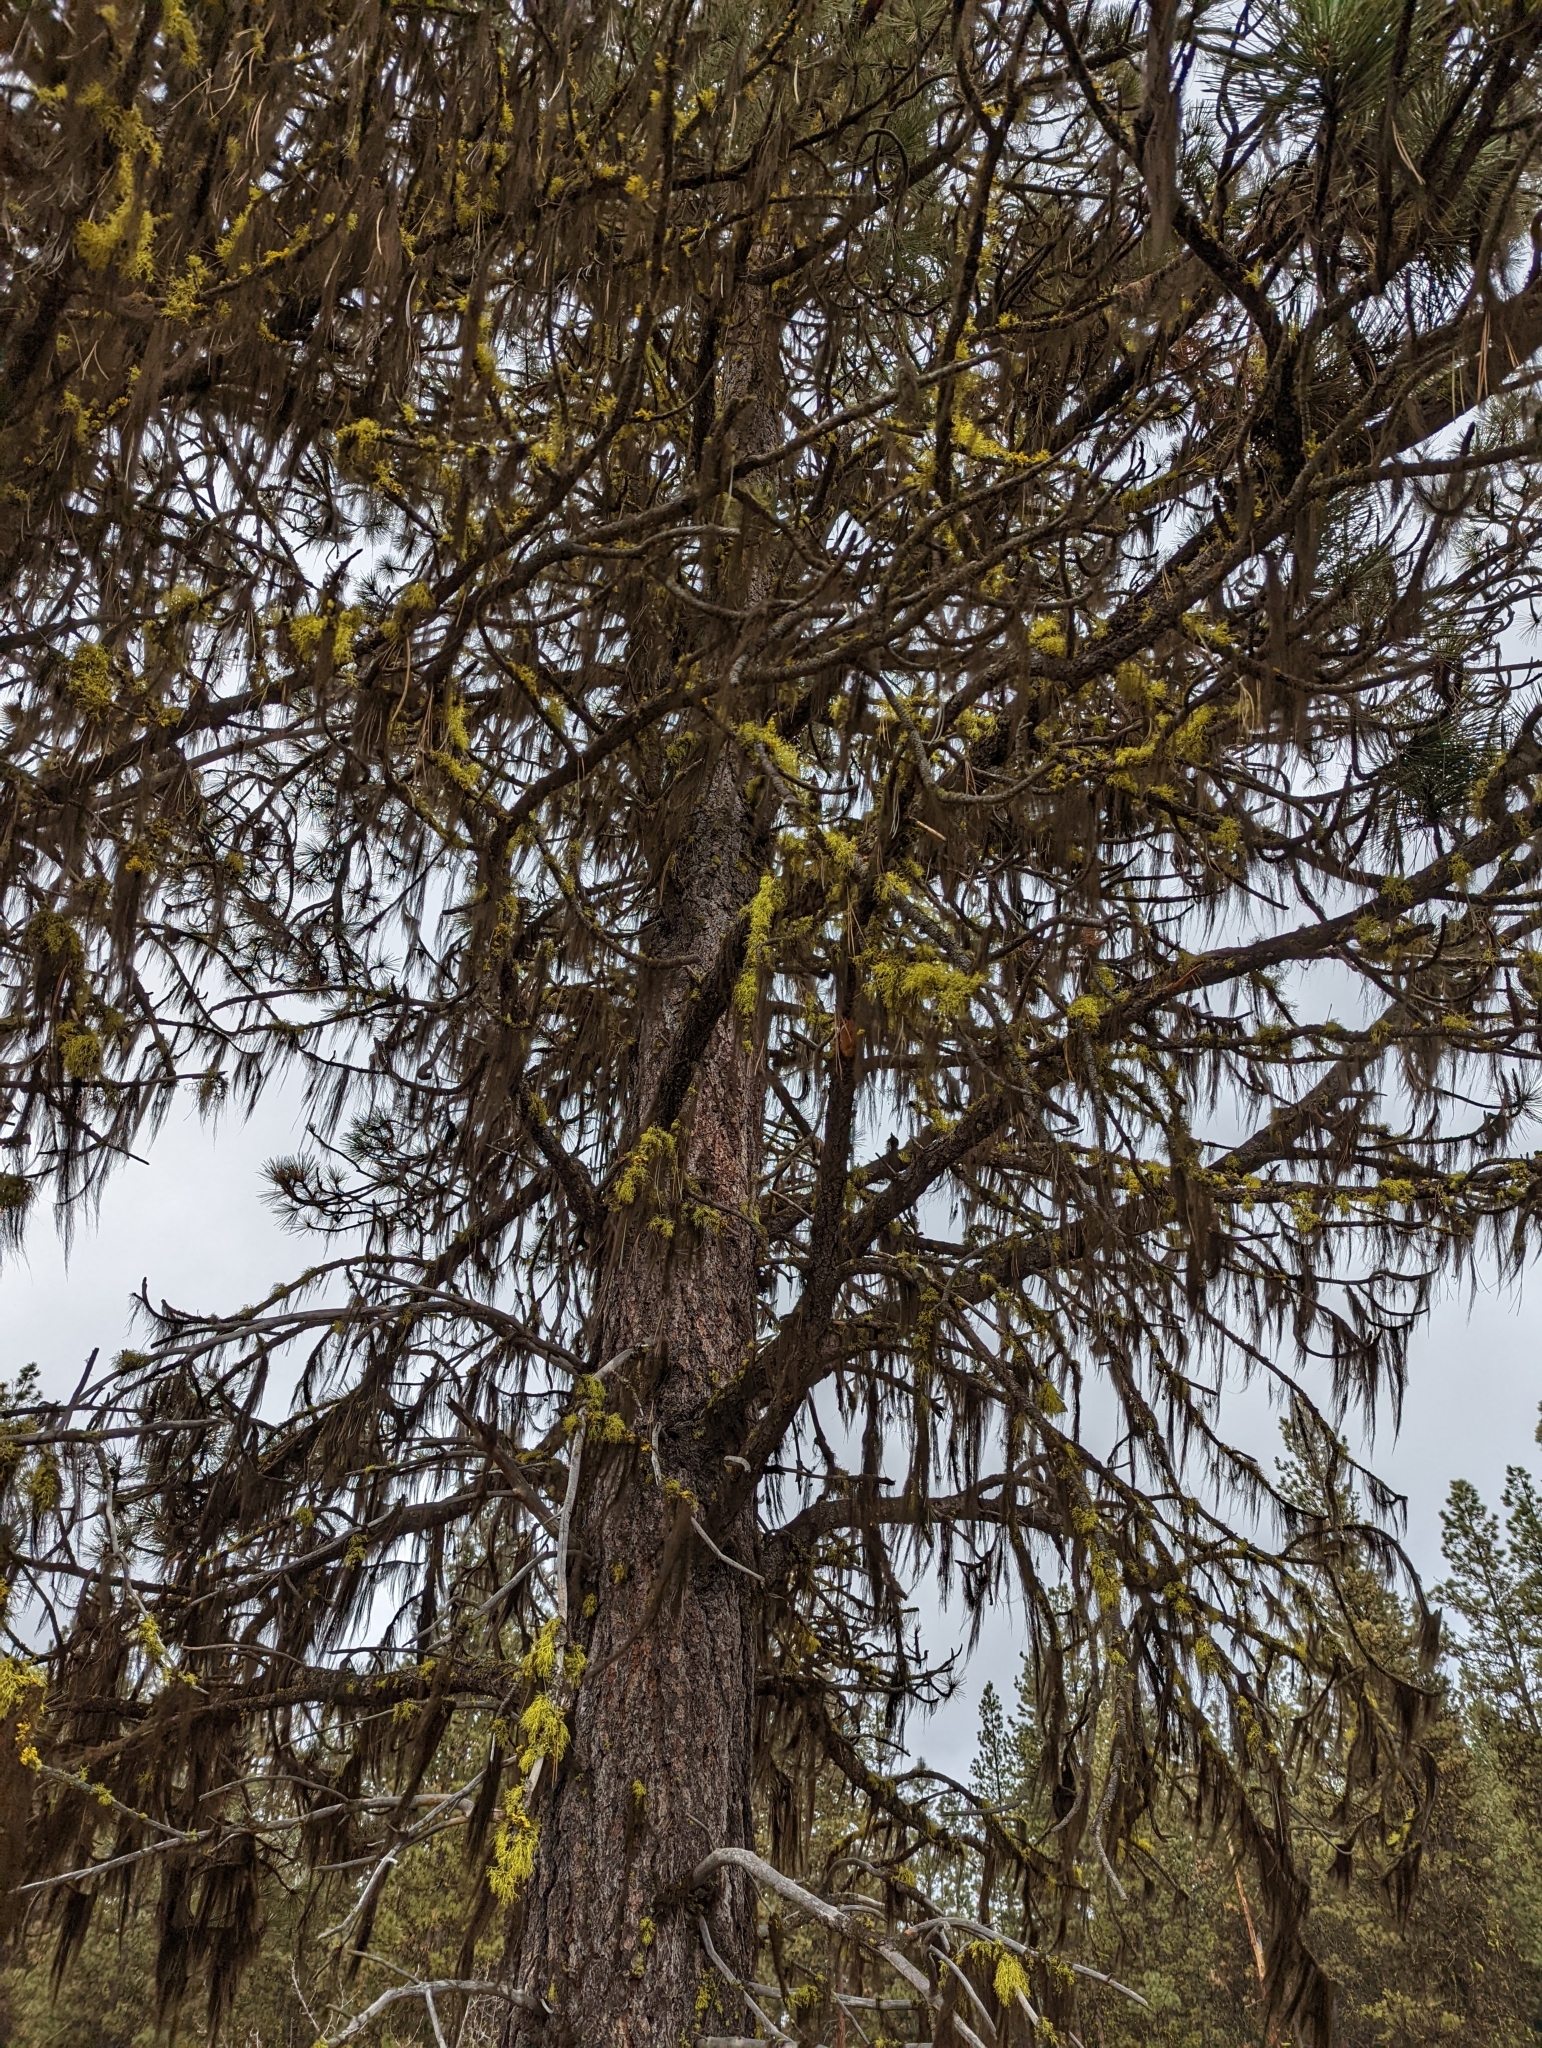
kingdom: Plantae
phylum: Tracheophyta
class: Pinopsida
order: Pinales
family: Pinaceae
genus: Pinus
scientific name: Pinus ponderosa
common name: Western yellow-pine
